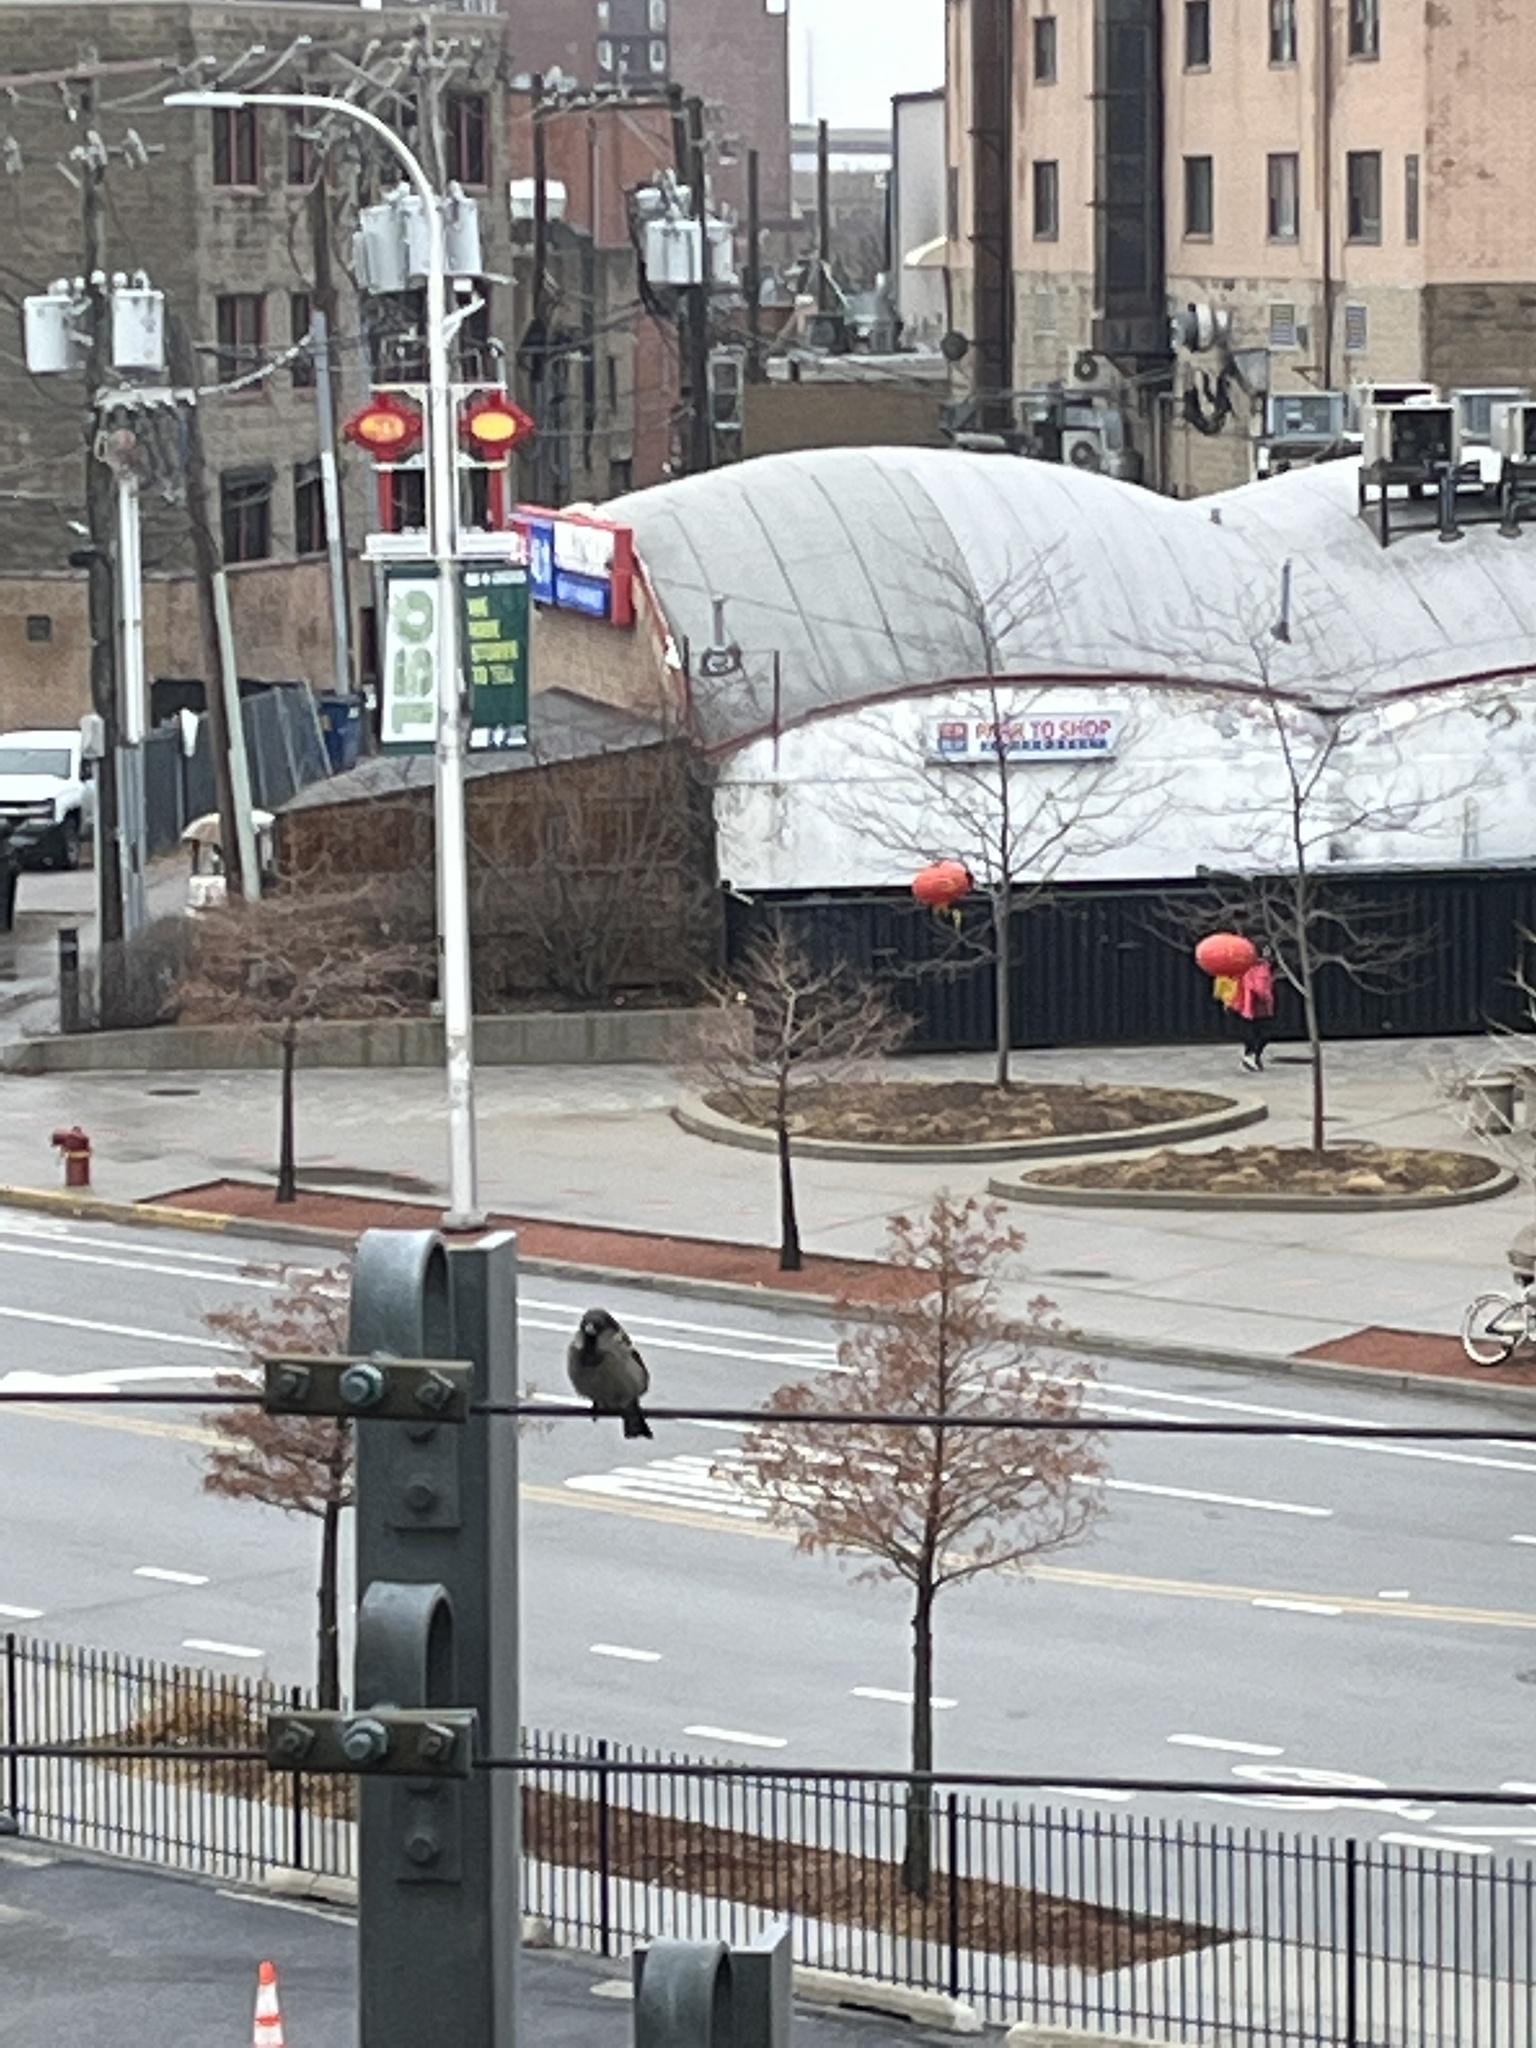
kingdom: Animalia
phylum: Chordata
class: Aves
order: Passeriformes
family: Passeridae
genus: Passer
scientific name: Passer domesticus
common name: House sparrow
